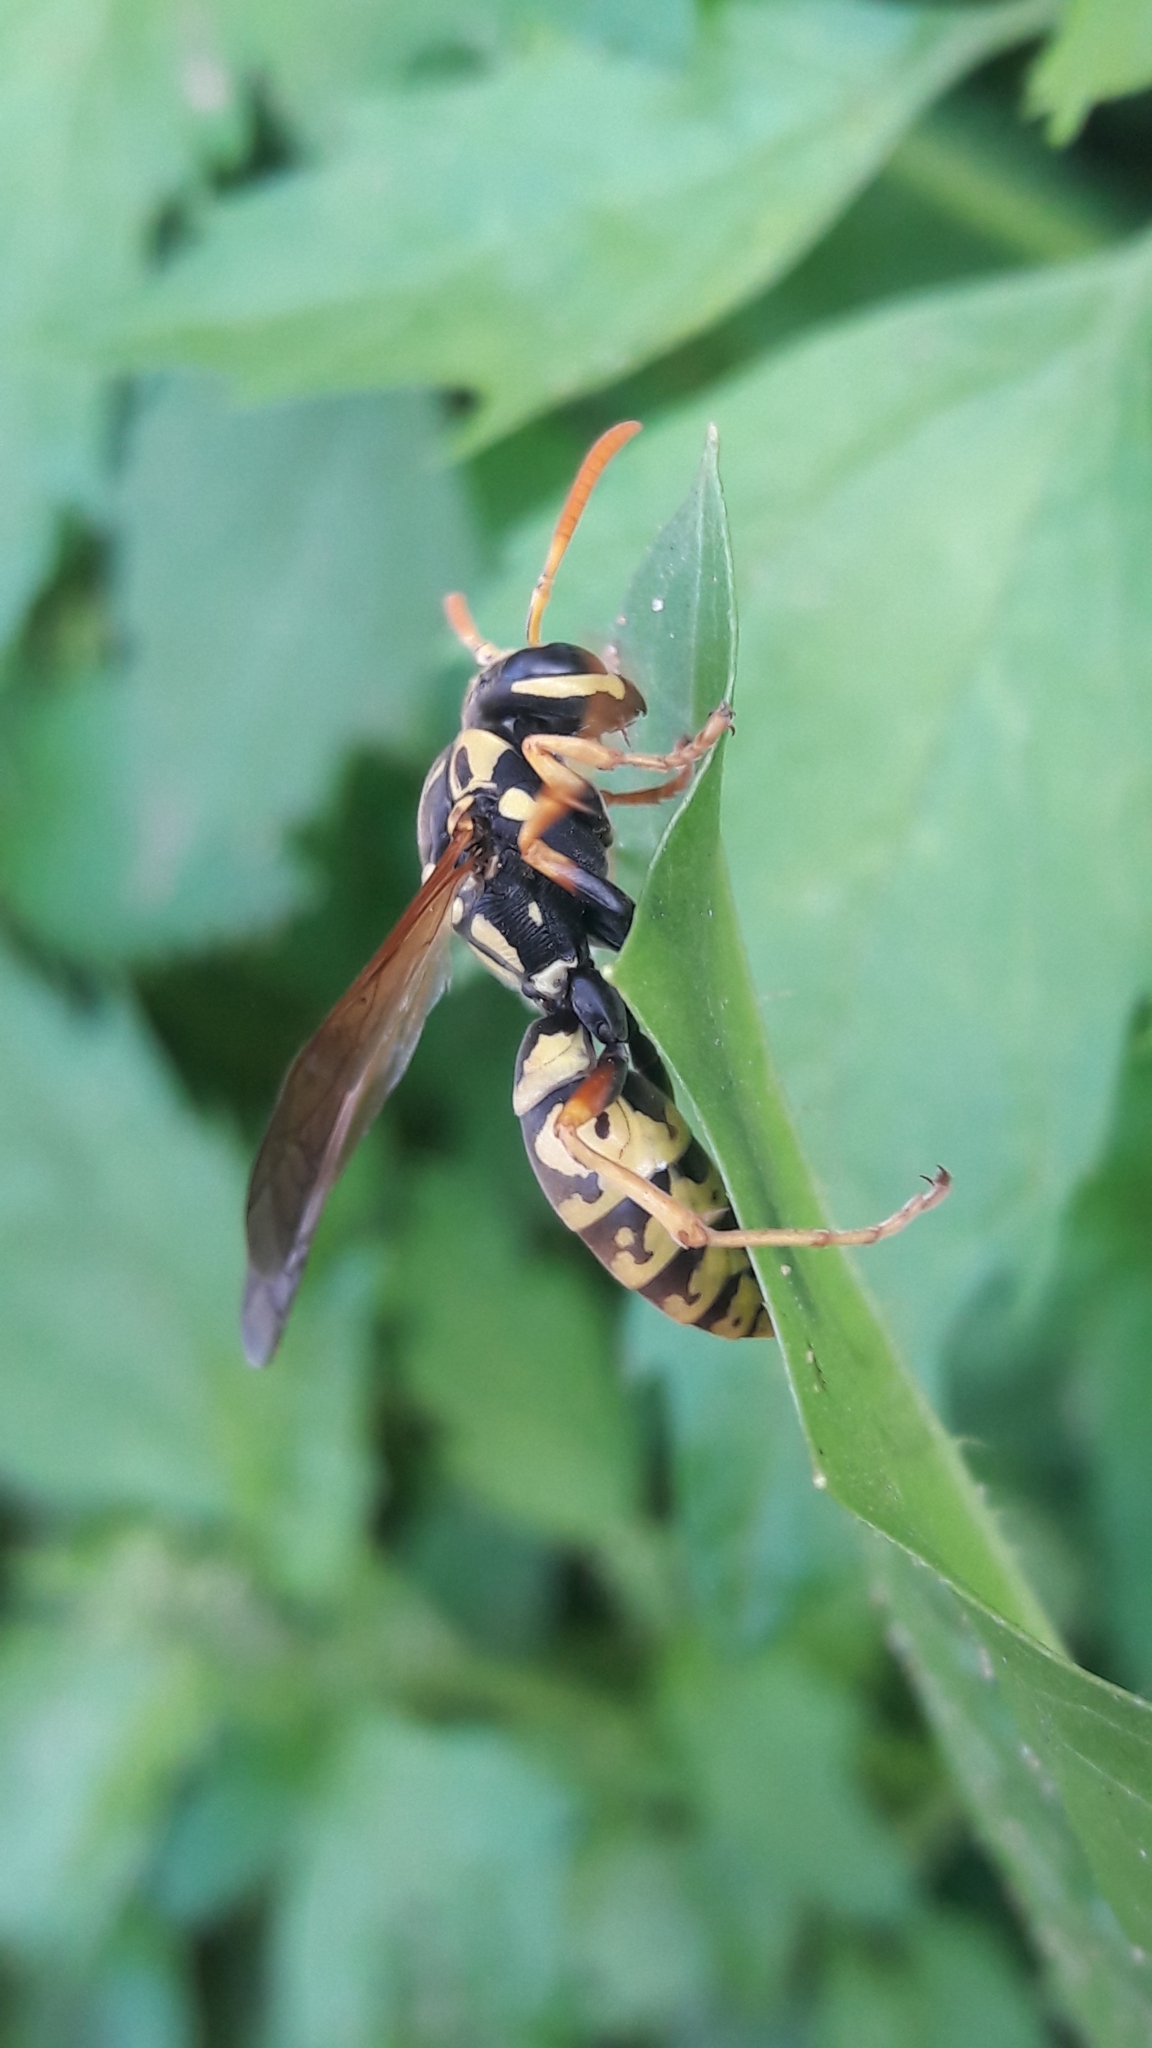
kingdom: Animalia
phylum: Arthropoda
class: Insecta
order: Hymenoptera
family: Eumenidae
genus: Polistes
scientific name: Polistes gallicus
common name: Paper wasp
